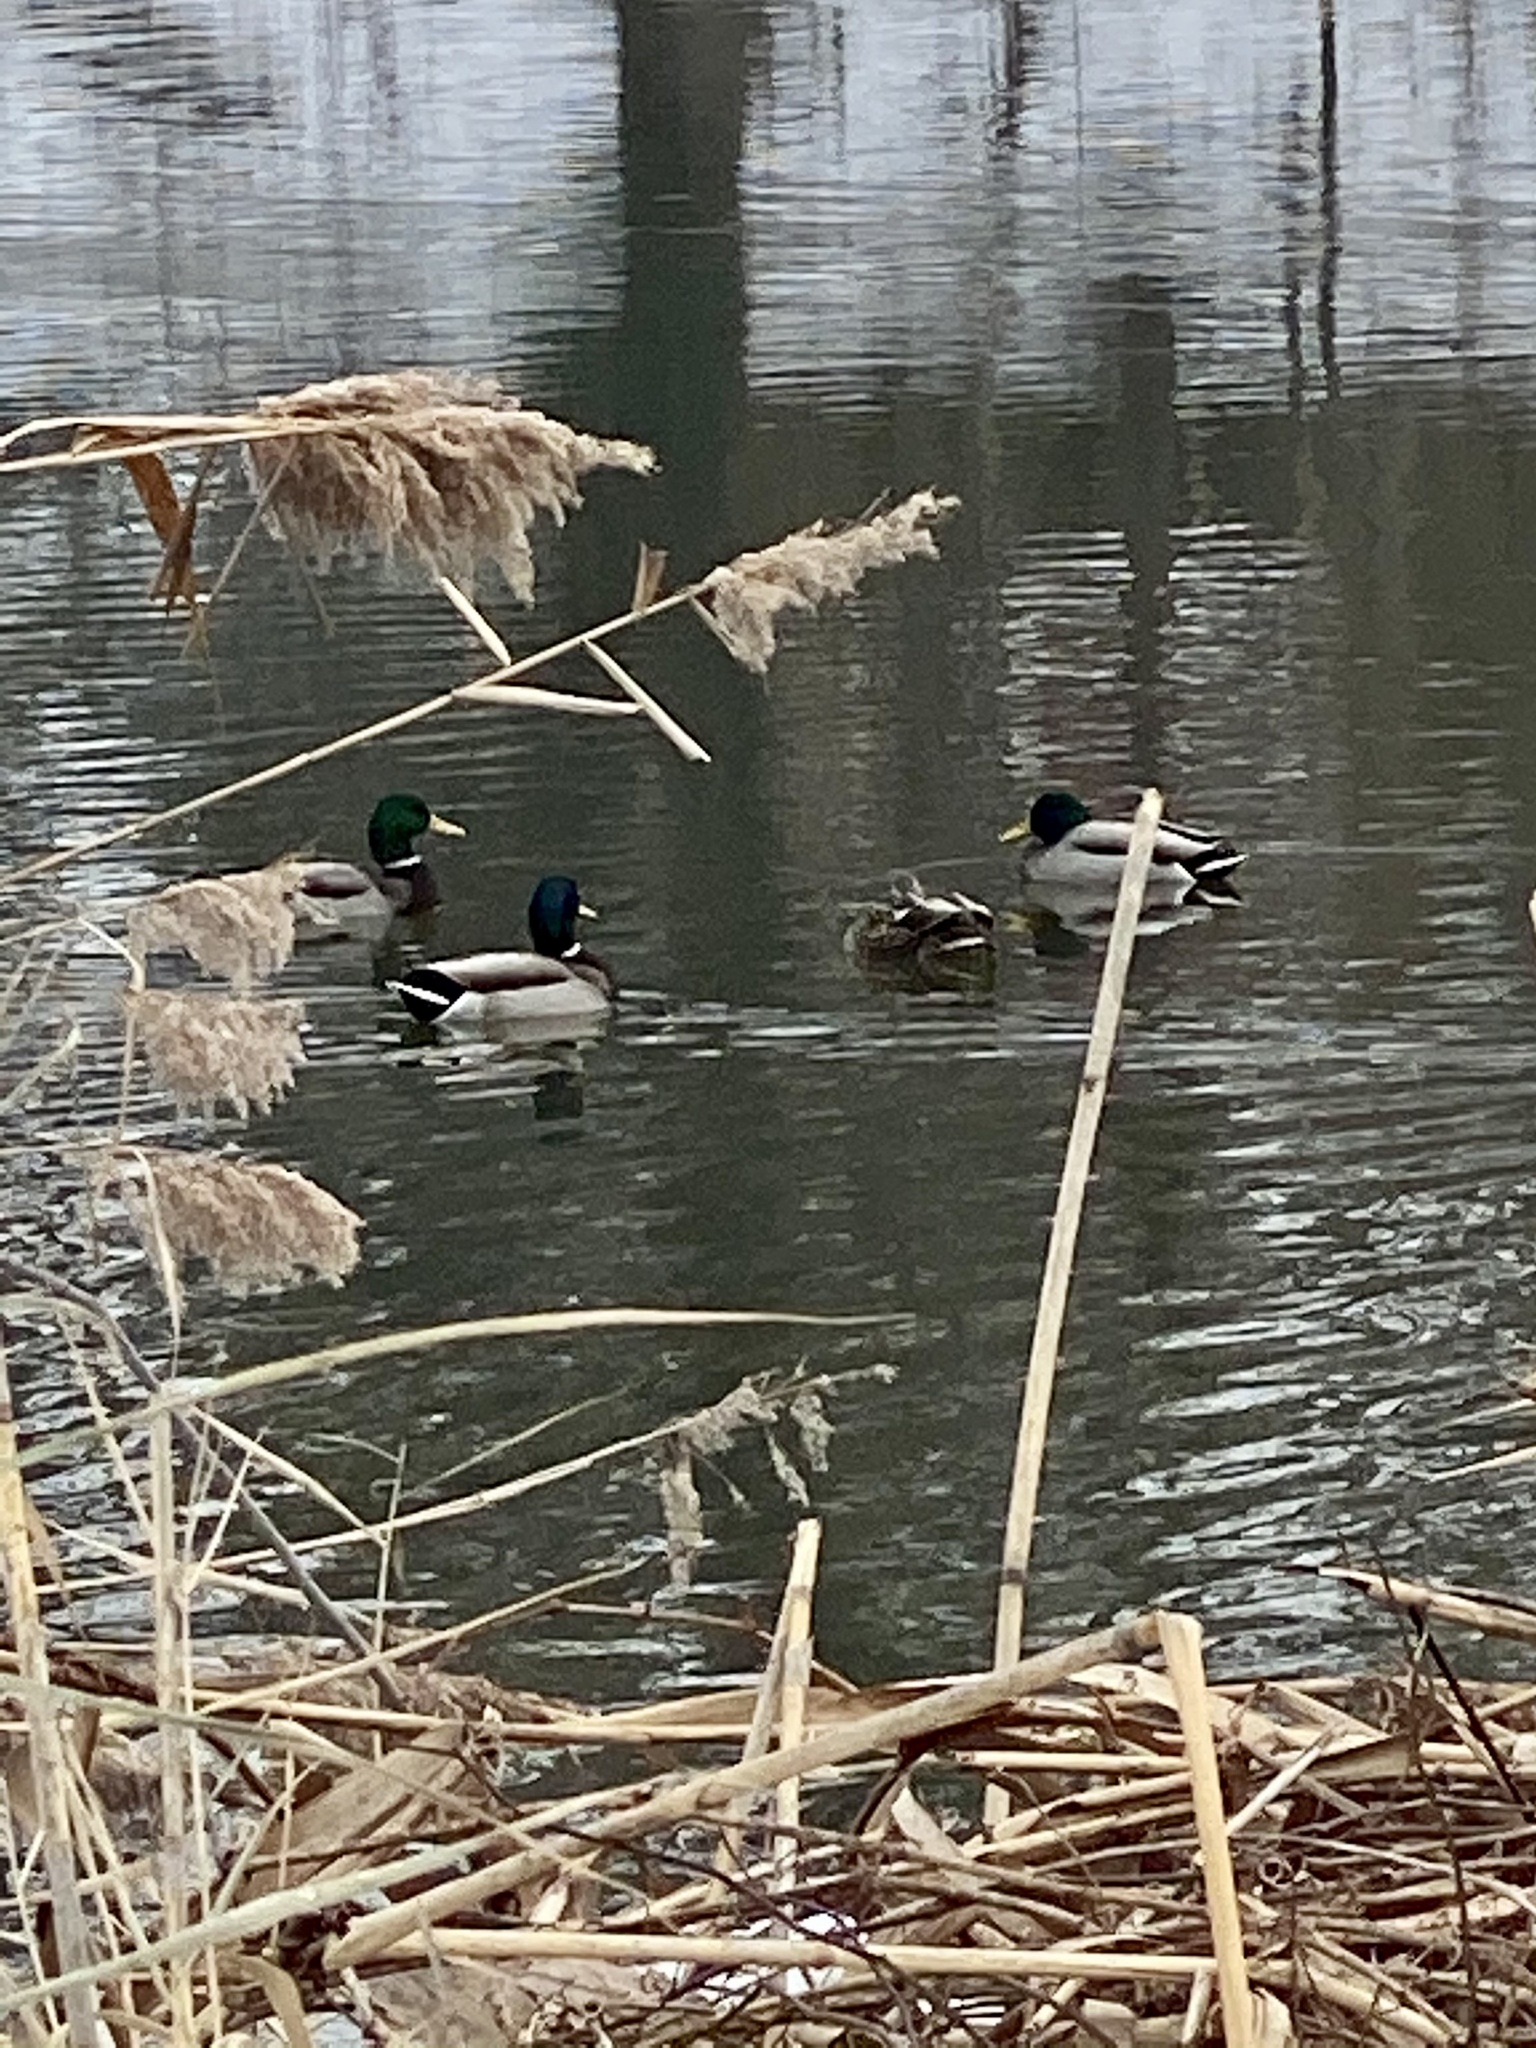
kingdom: Animalia
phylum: Chordata
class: Aves
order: Anseriformes
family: Anatidae
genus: Anas
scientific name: Anas platyrhynchos
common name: Mallard
